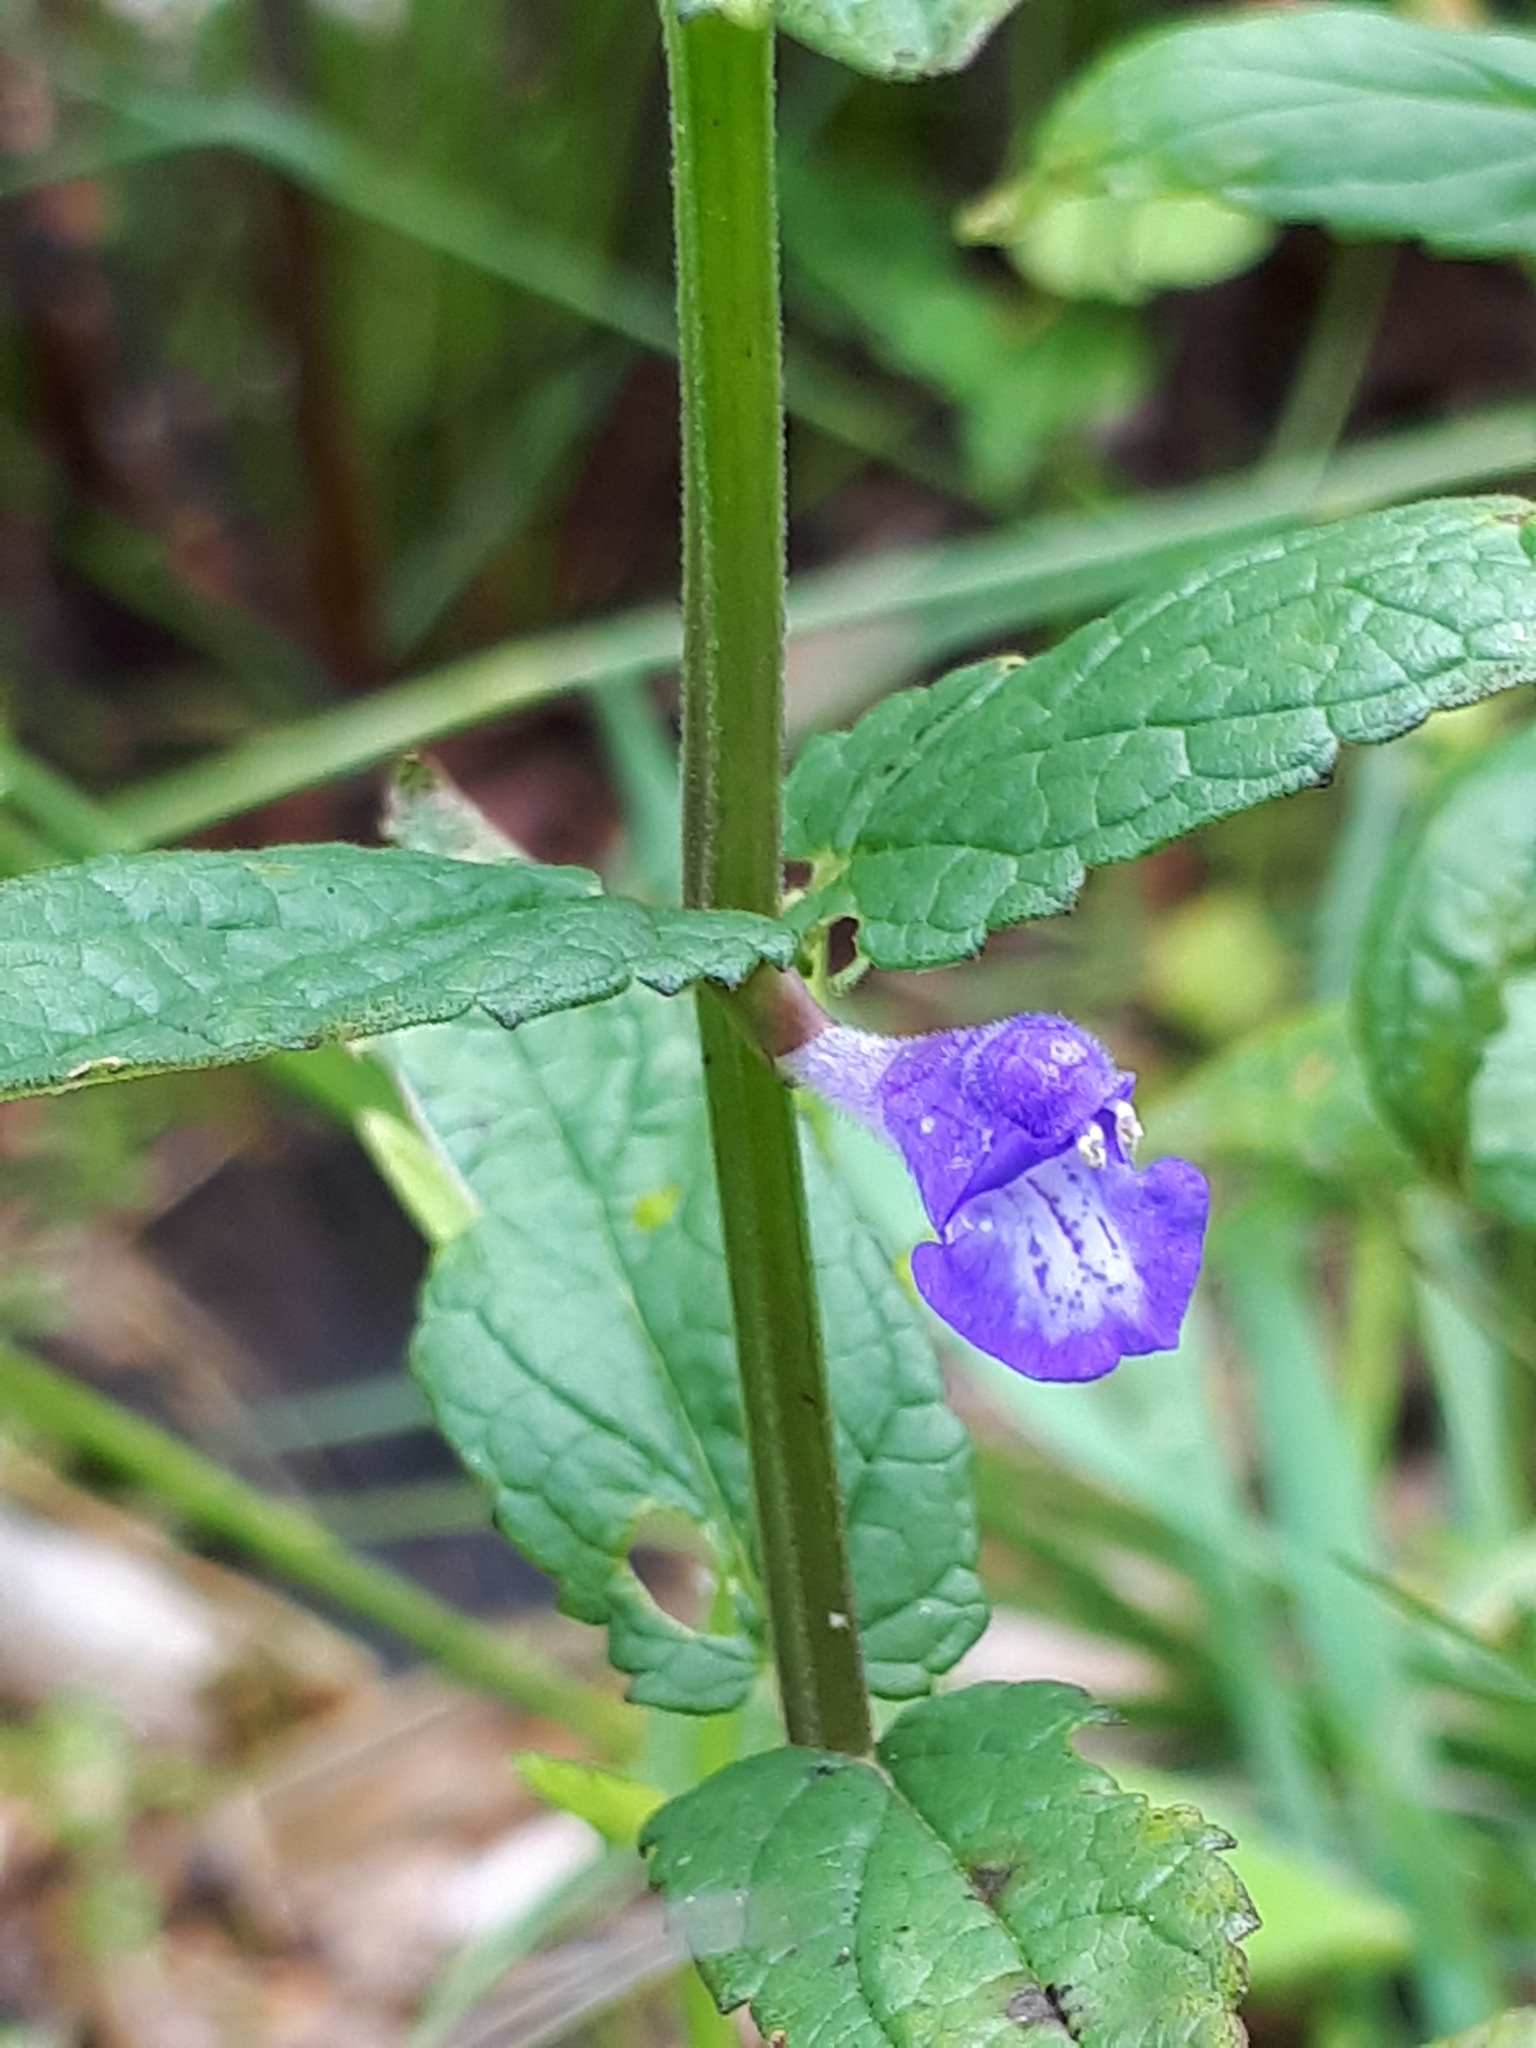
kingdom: Plantae
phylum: Tracheophyta
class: Magnoliopsida
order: Lamiales
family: Lamiaceae
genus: Scutellaria
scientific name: Scutellaria galericulata
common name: Skullcap
